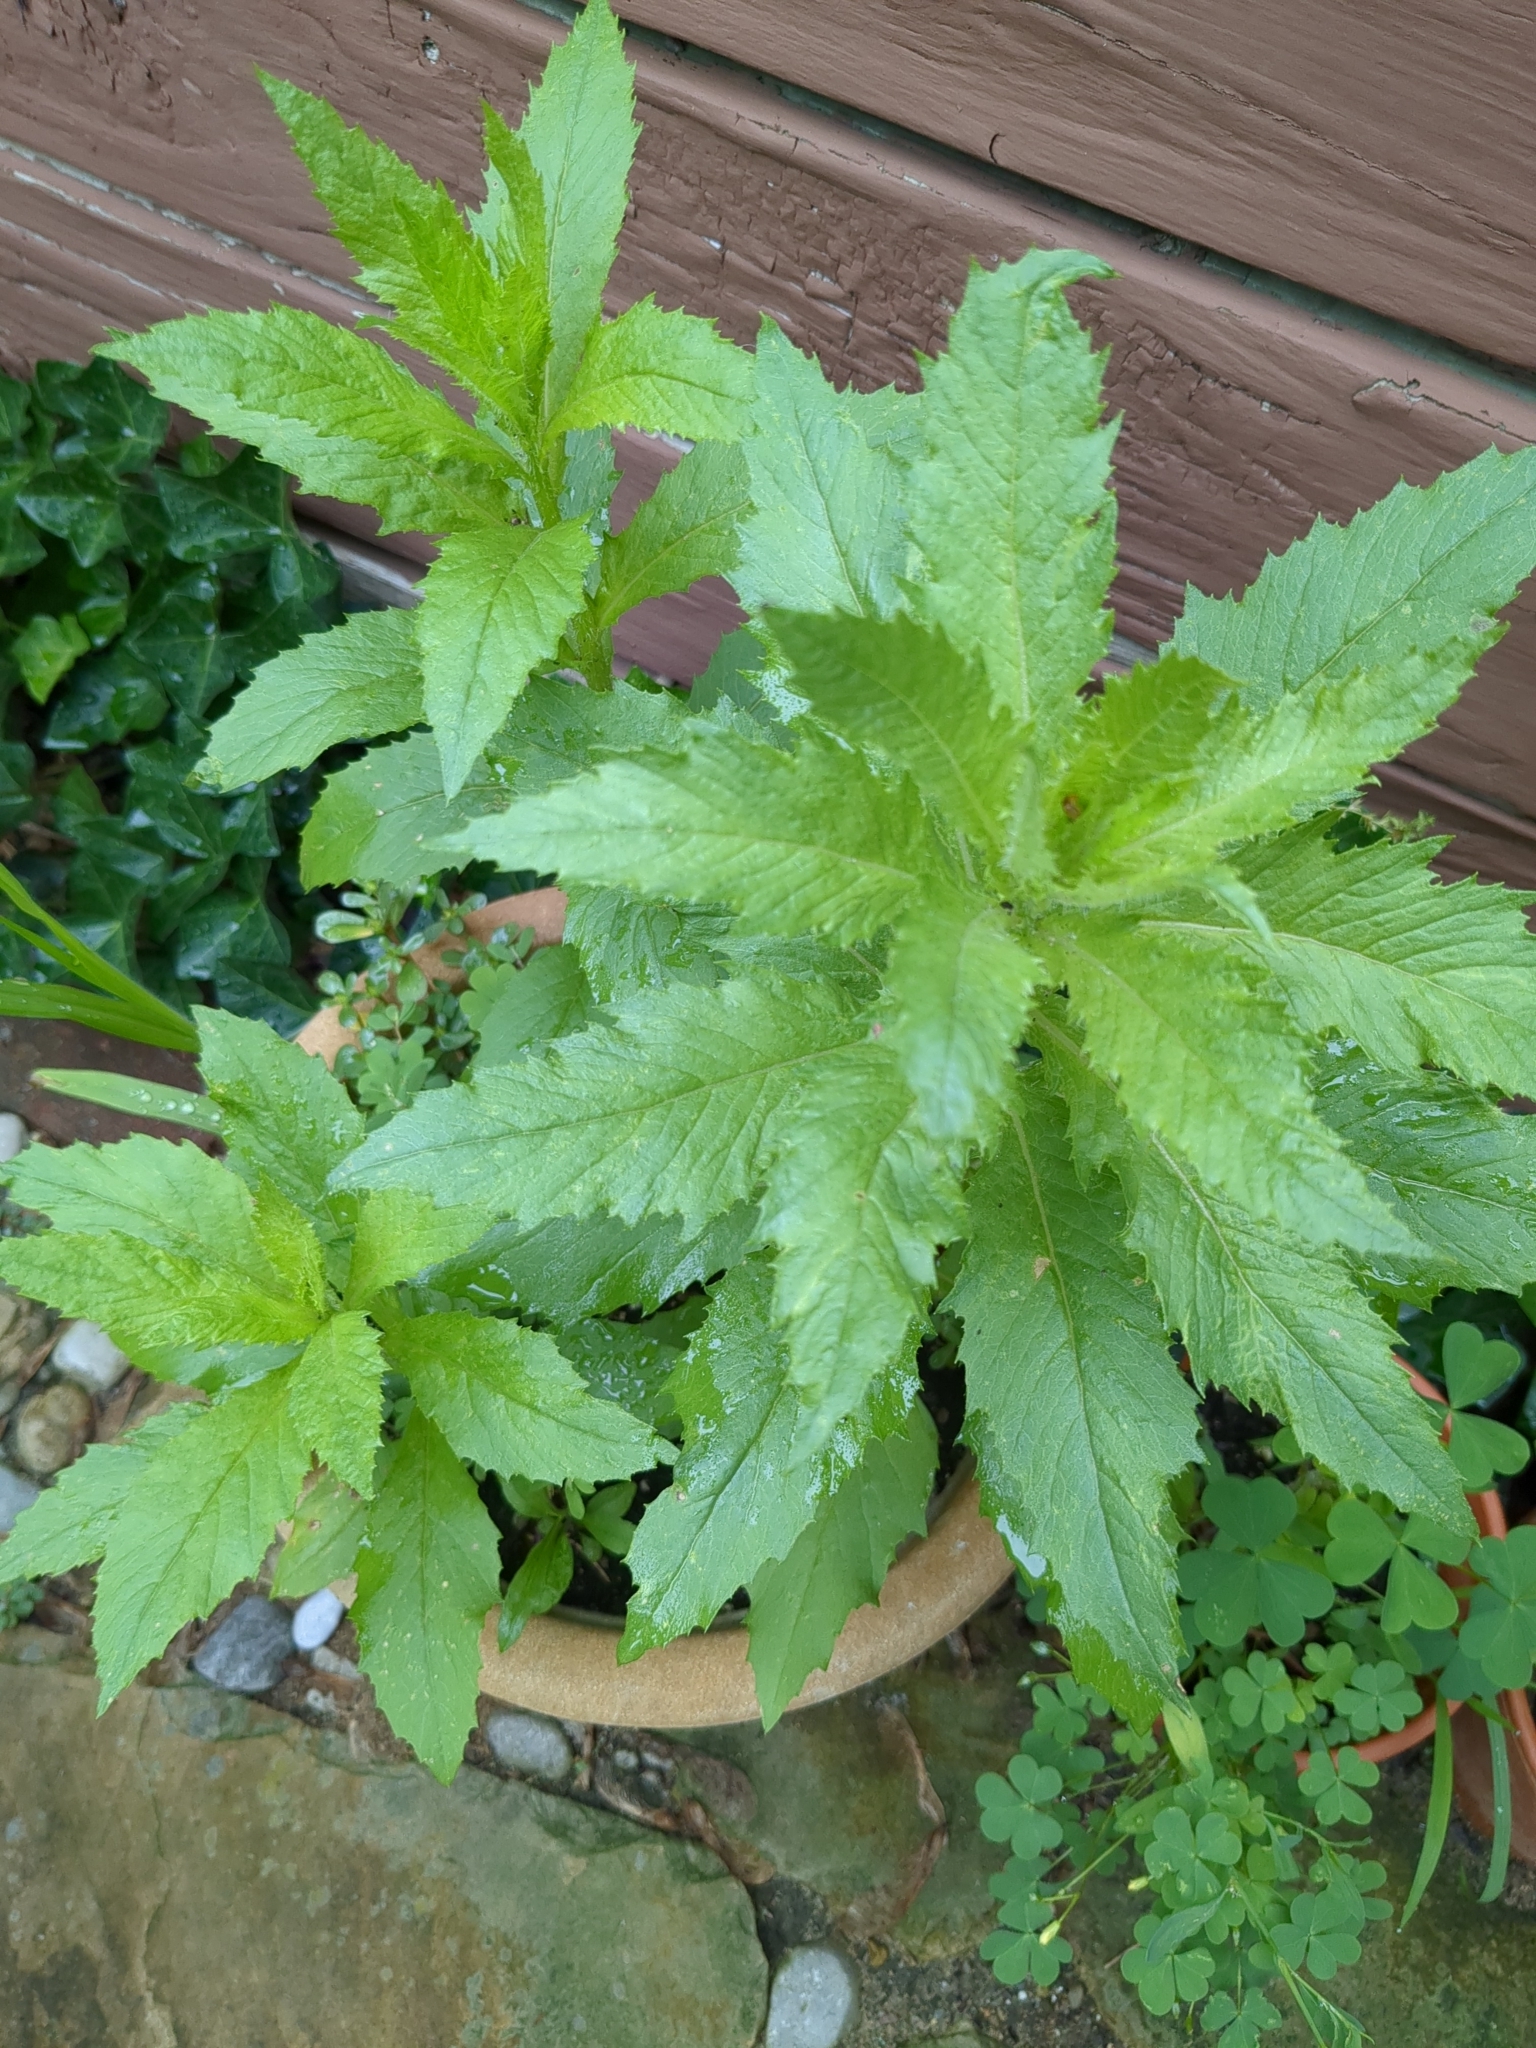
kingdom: Plantae
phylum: Tracheophyta
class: Magnoliopsida
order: Asterales
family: Asteraceae
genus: Erechtites
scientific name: Erechtites hieraciifolius
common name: American burnweed
